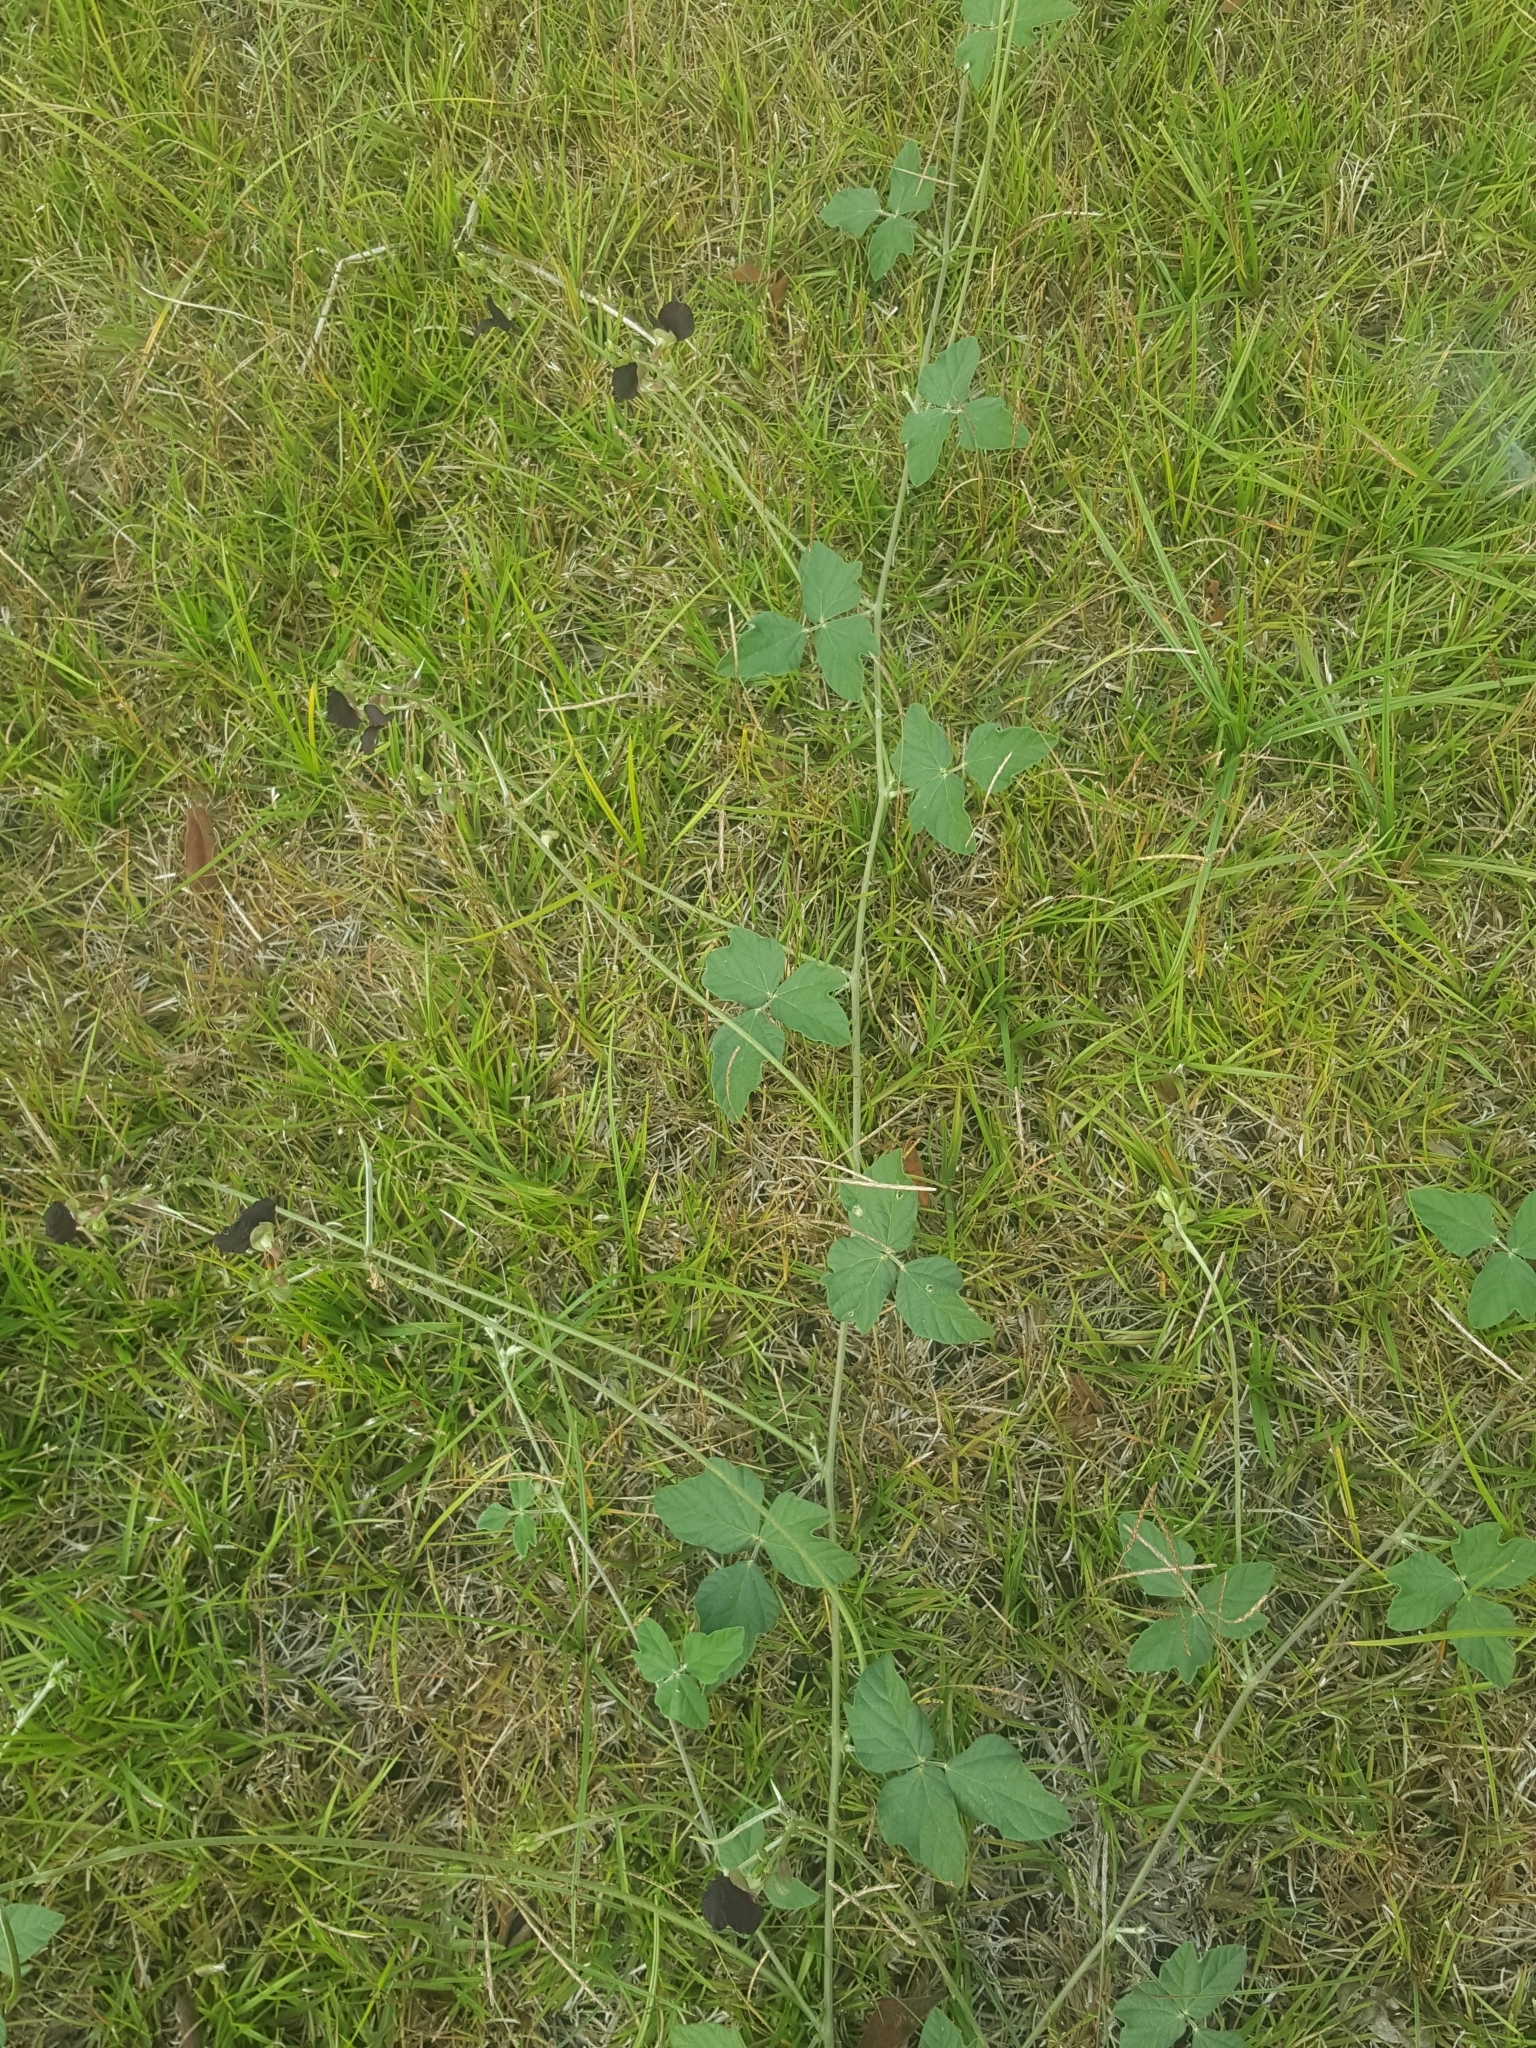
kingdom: Plantae
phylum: Tracheophyta
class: Magnoliopsida
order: Fabales
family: Fabaceae
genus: Macroptilium
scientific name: Macroptilium atropurpureum
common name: Purple bushbean
